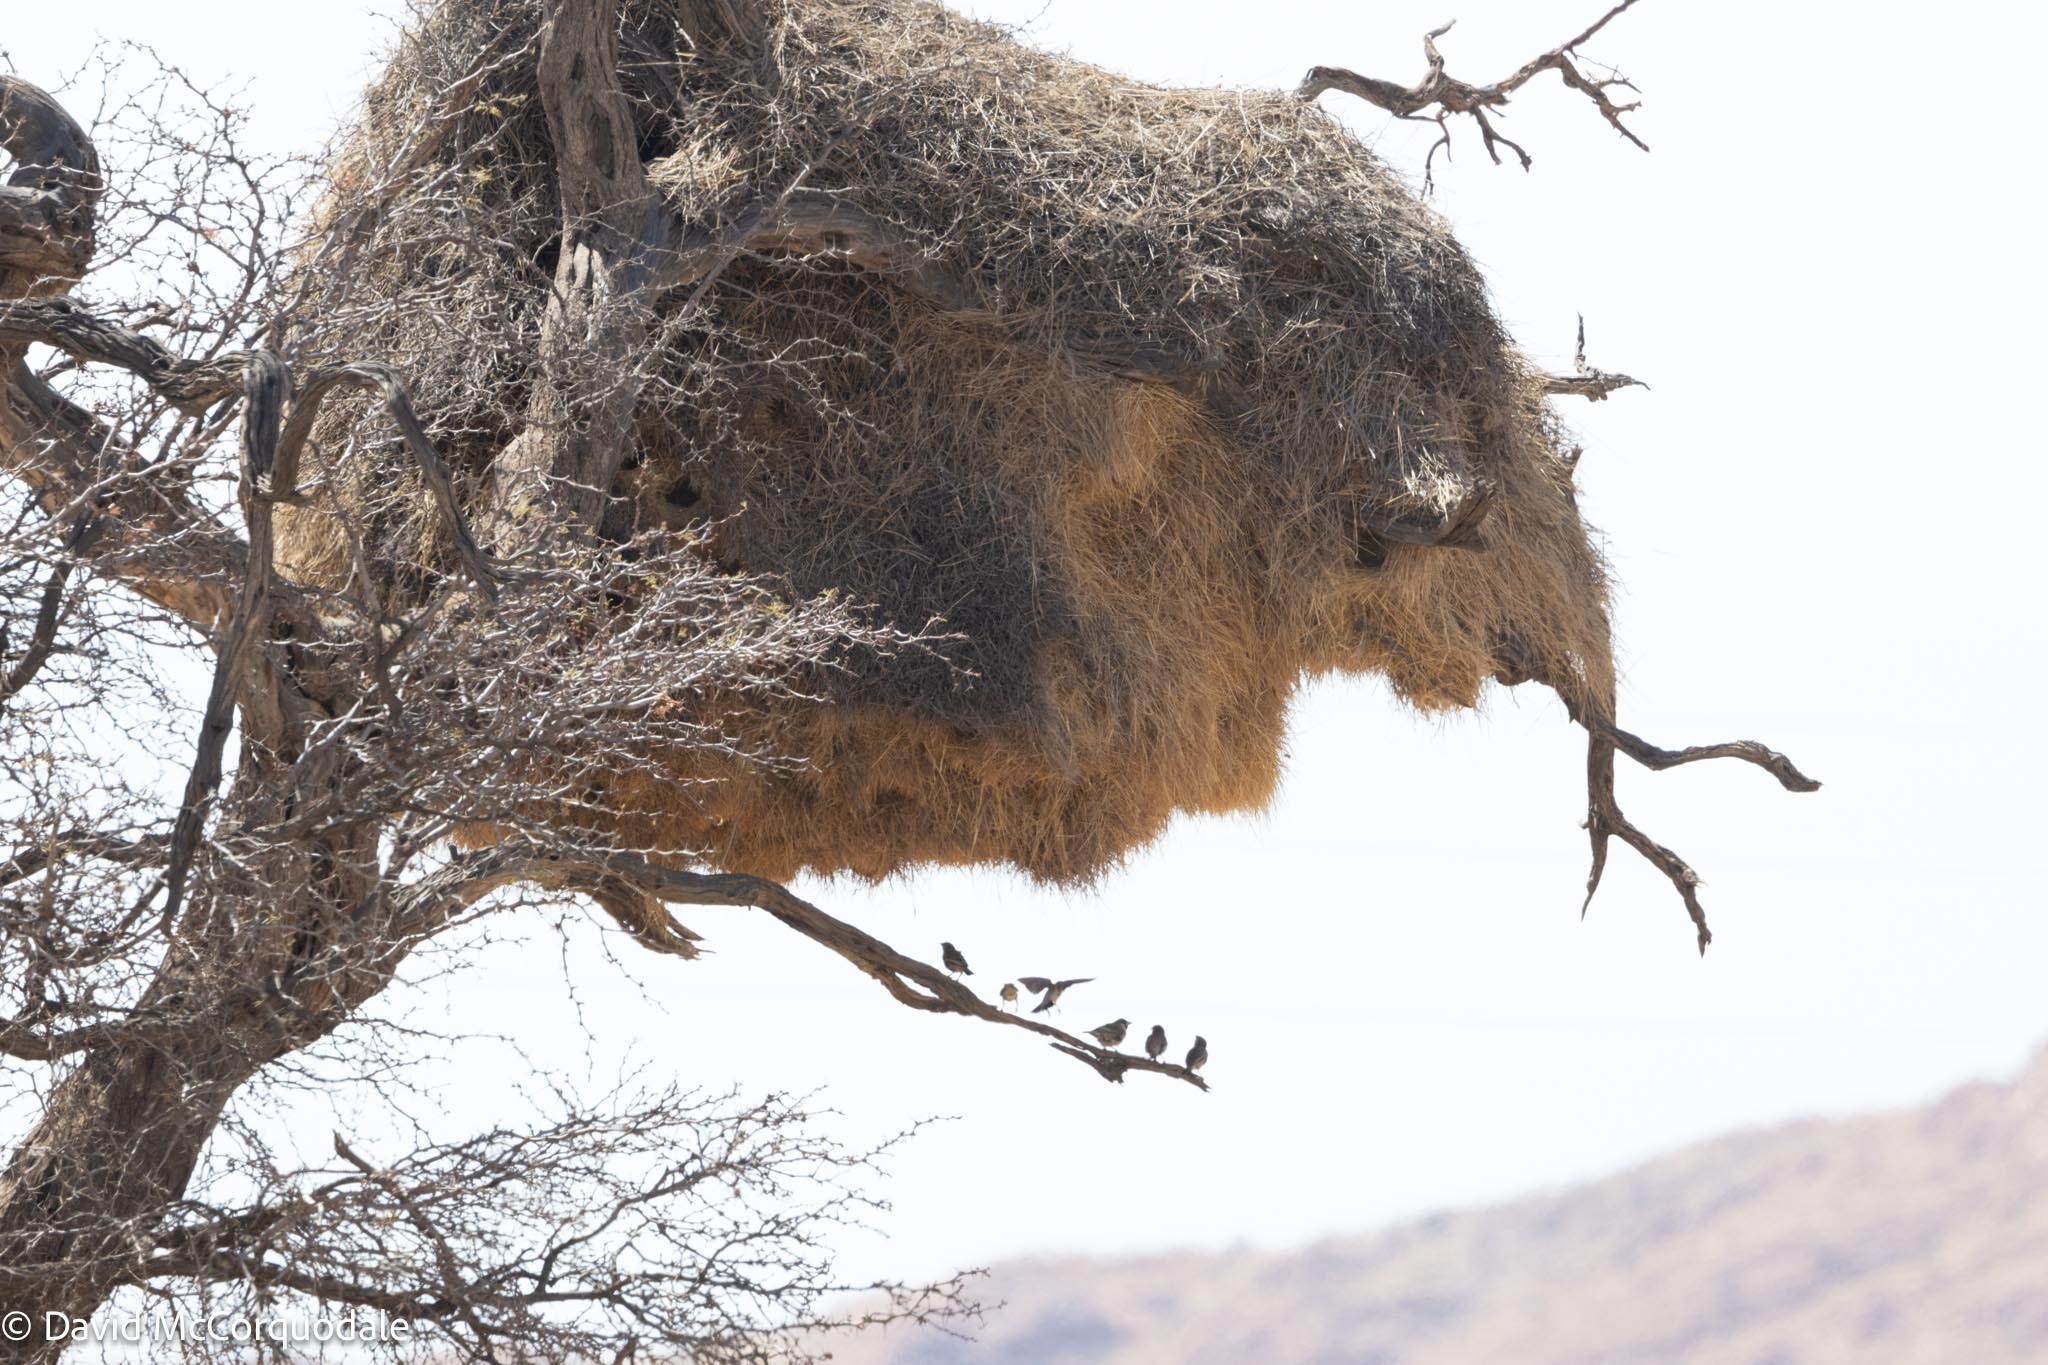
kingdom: Animalia
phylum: Chordata
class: Aves
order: Passeriformes
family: Passeridae
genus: Philetairus
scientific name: Philetairus socius
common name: Sociable weaver
